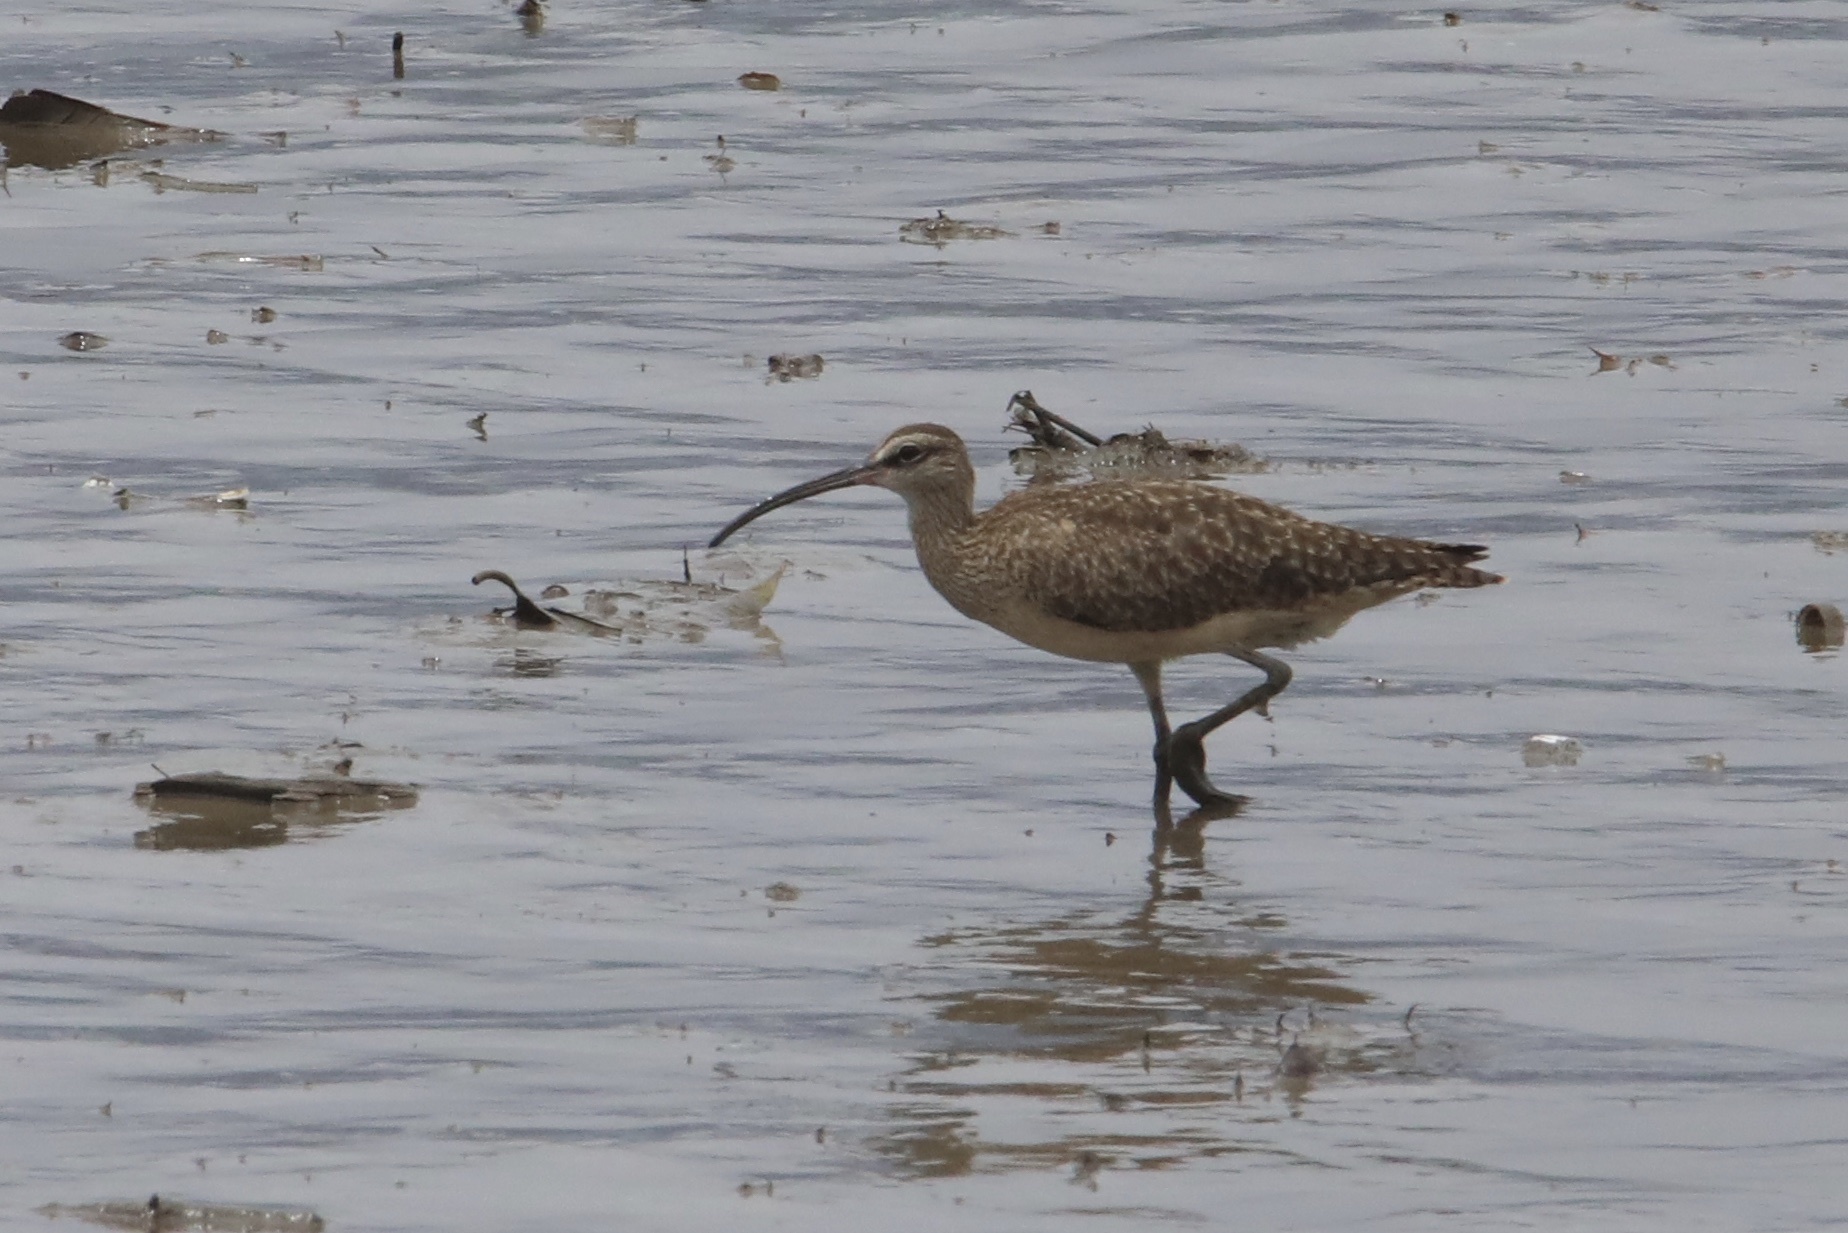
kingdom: Animalia
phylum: Chordata
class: Aves
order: Charadriiformes
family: Scolopacidae
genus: Numenius
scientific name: Numenius phaeopus
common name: Whimbrel
